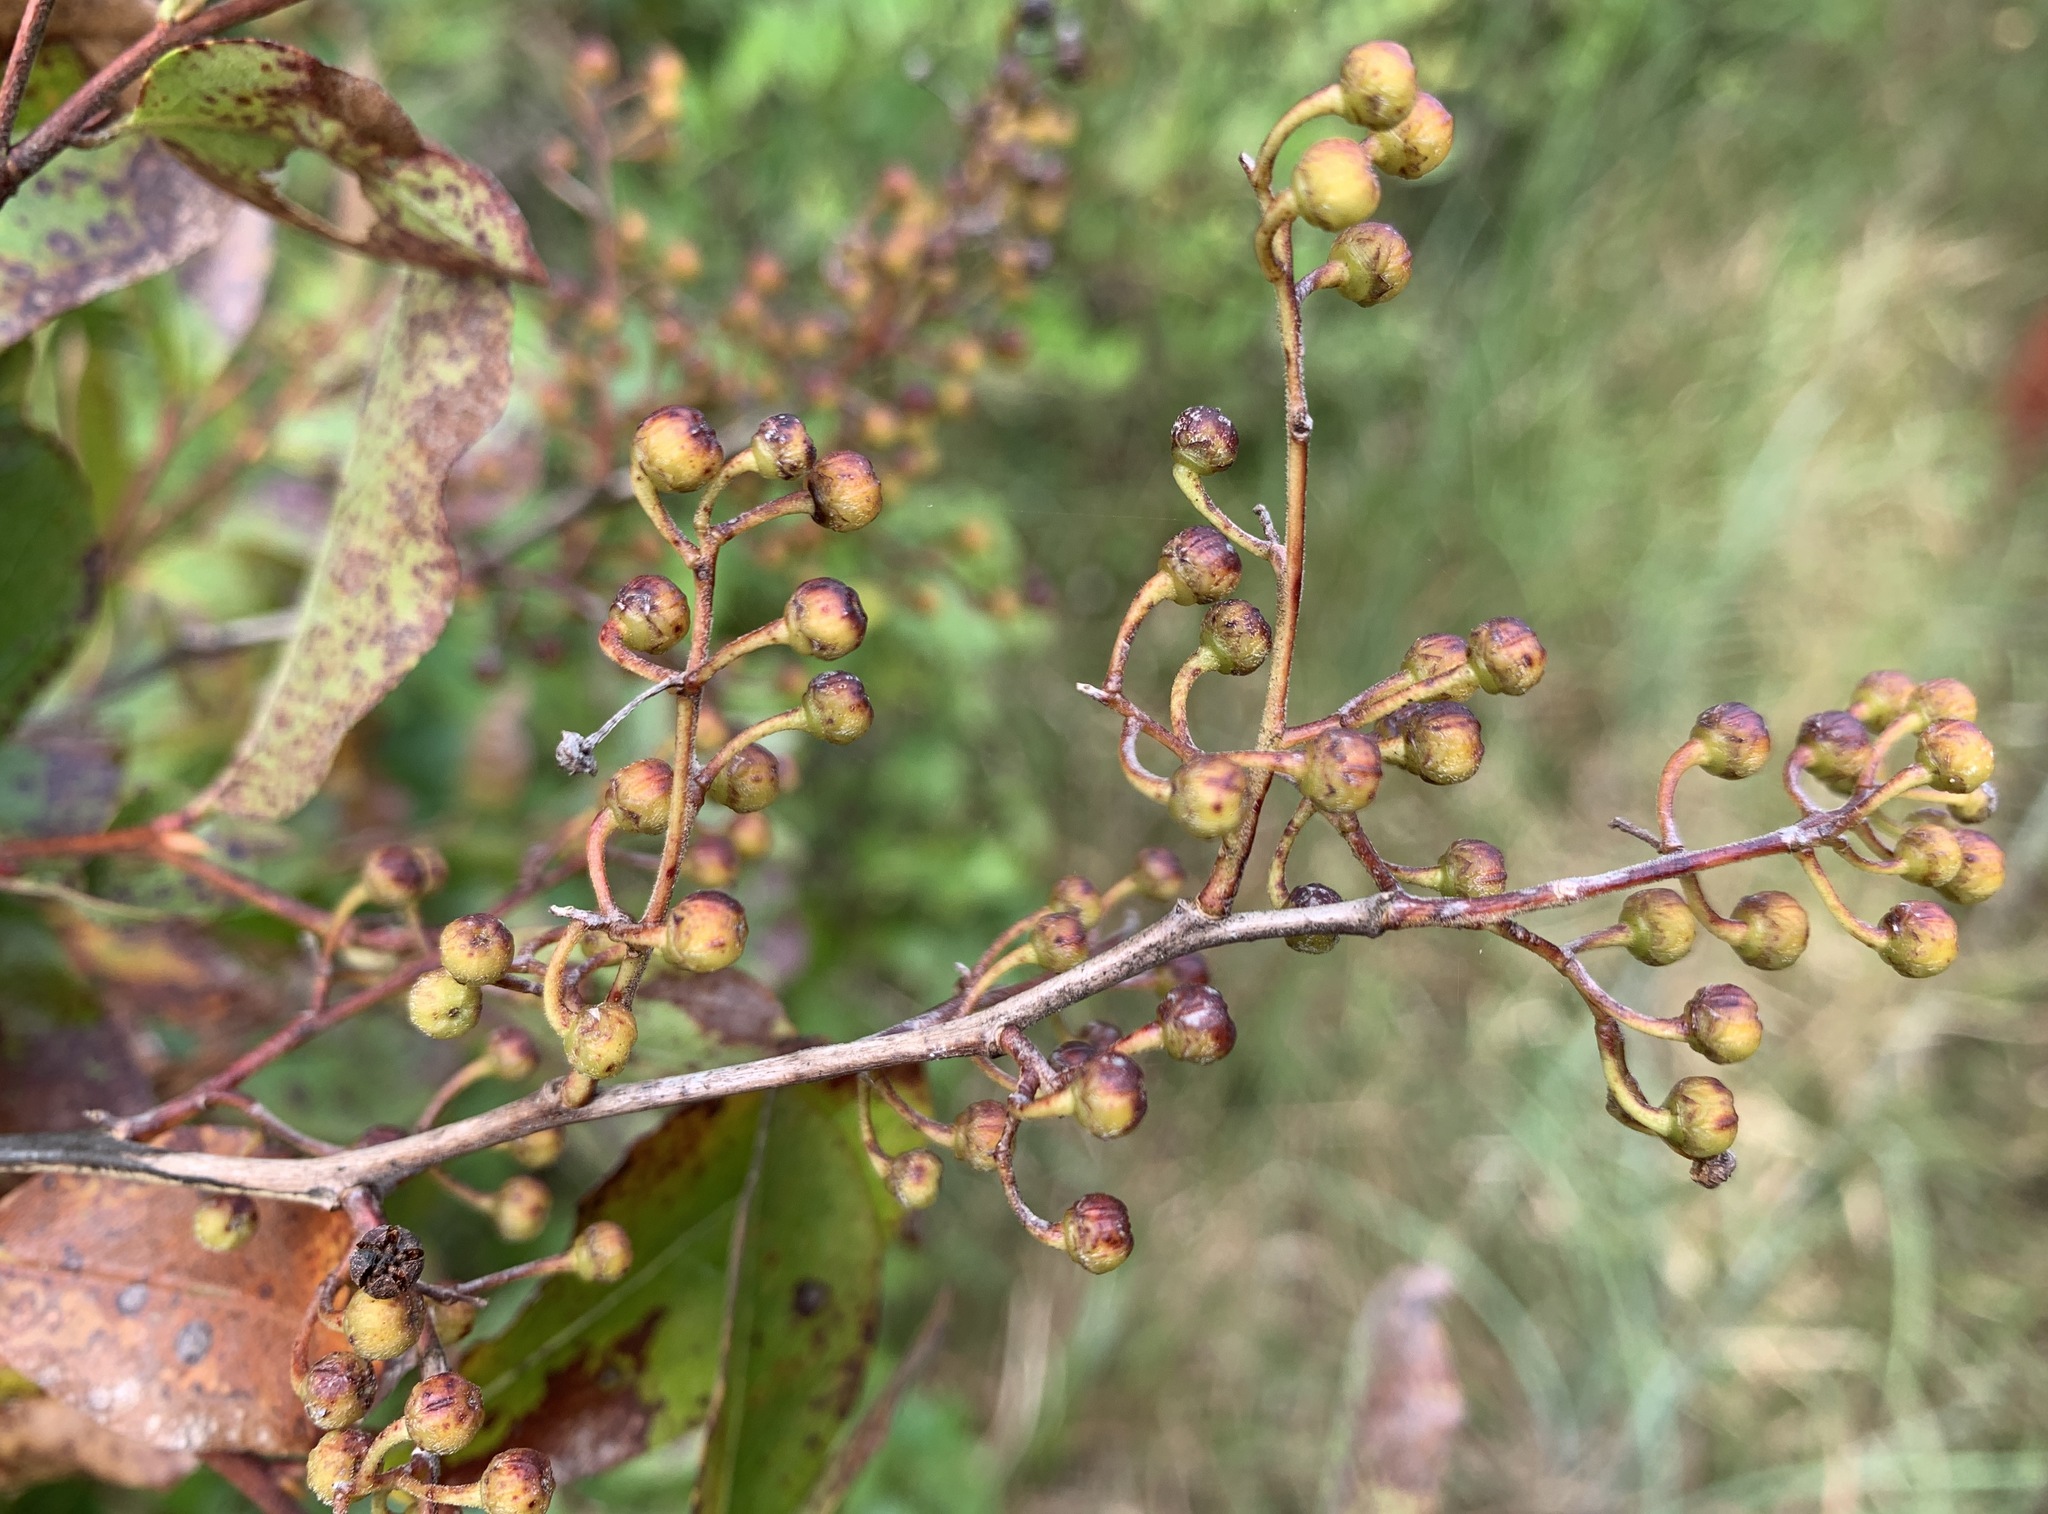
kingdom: Plantae
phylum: Tracheophyta
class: Magnoliopsida
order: Ericales
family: Ericaceae
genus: Lyonia
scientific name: Lyonia ligustrina
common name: Maleberry
